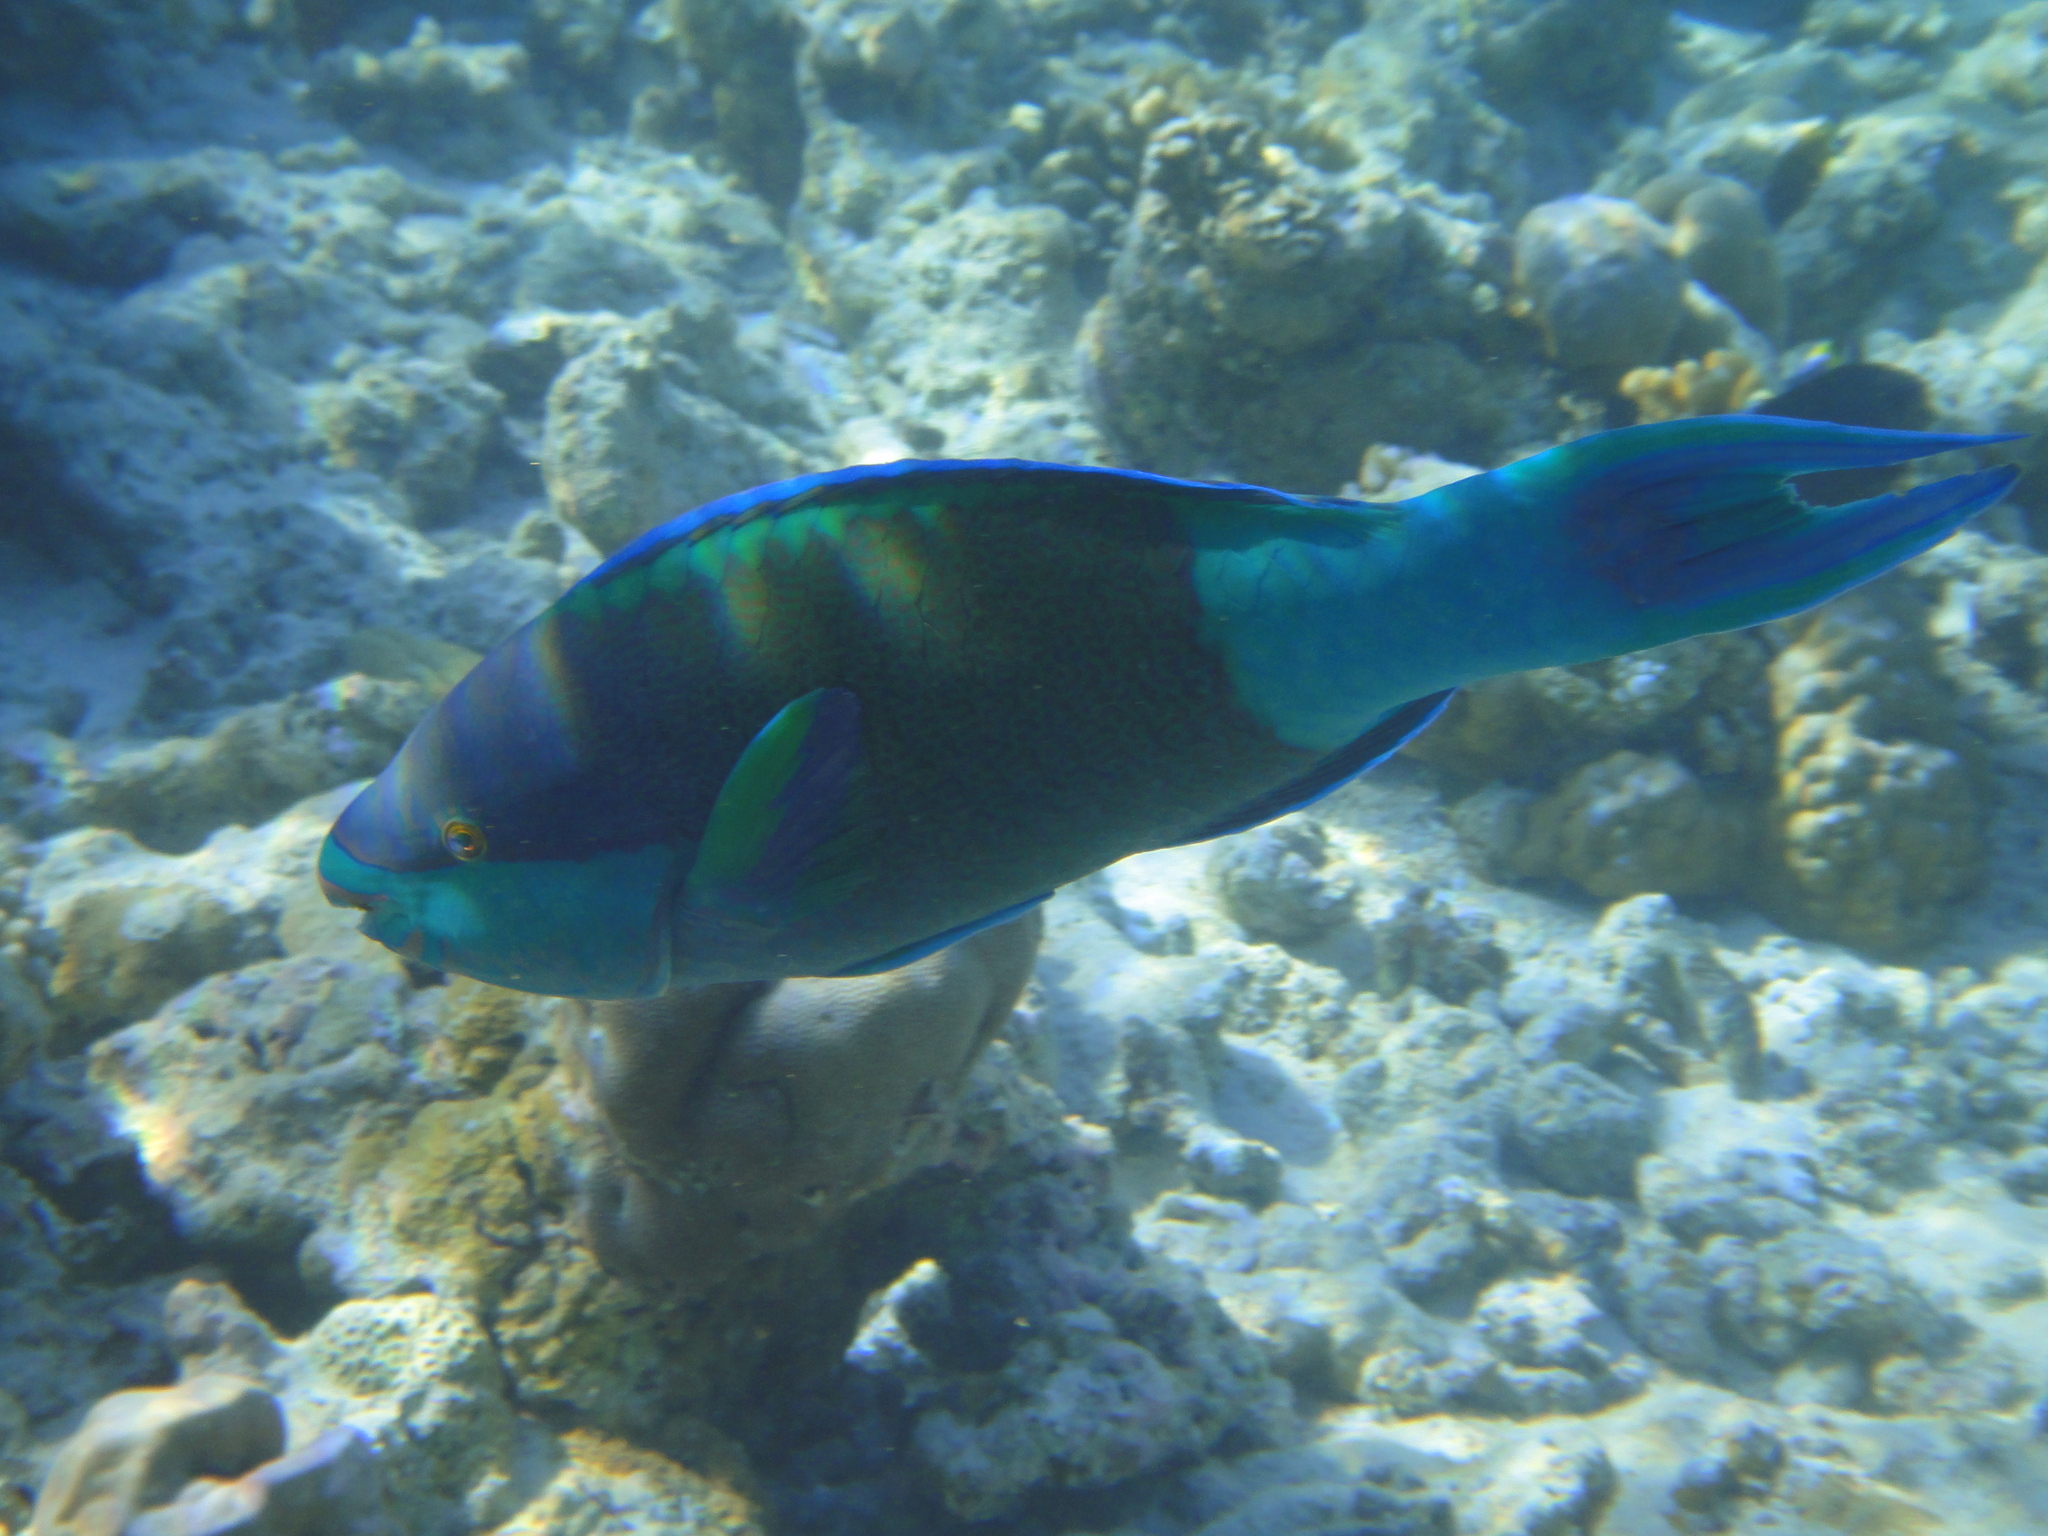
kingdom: Animalia
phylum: Chordata
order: Perciformes
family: Scaridae
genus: Scarus
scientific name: Scarus frenatus
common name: Bridled parrotfish
